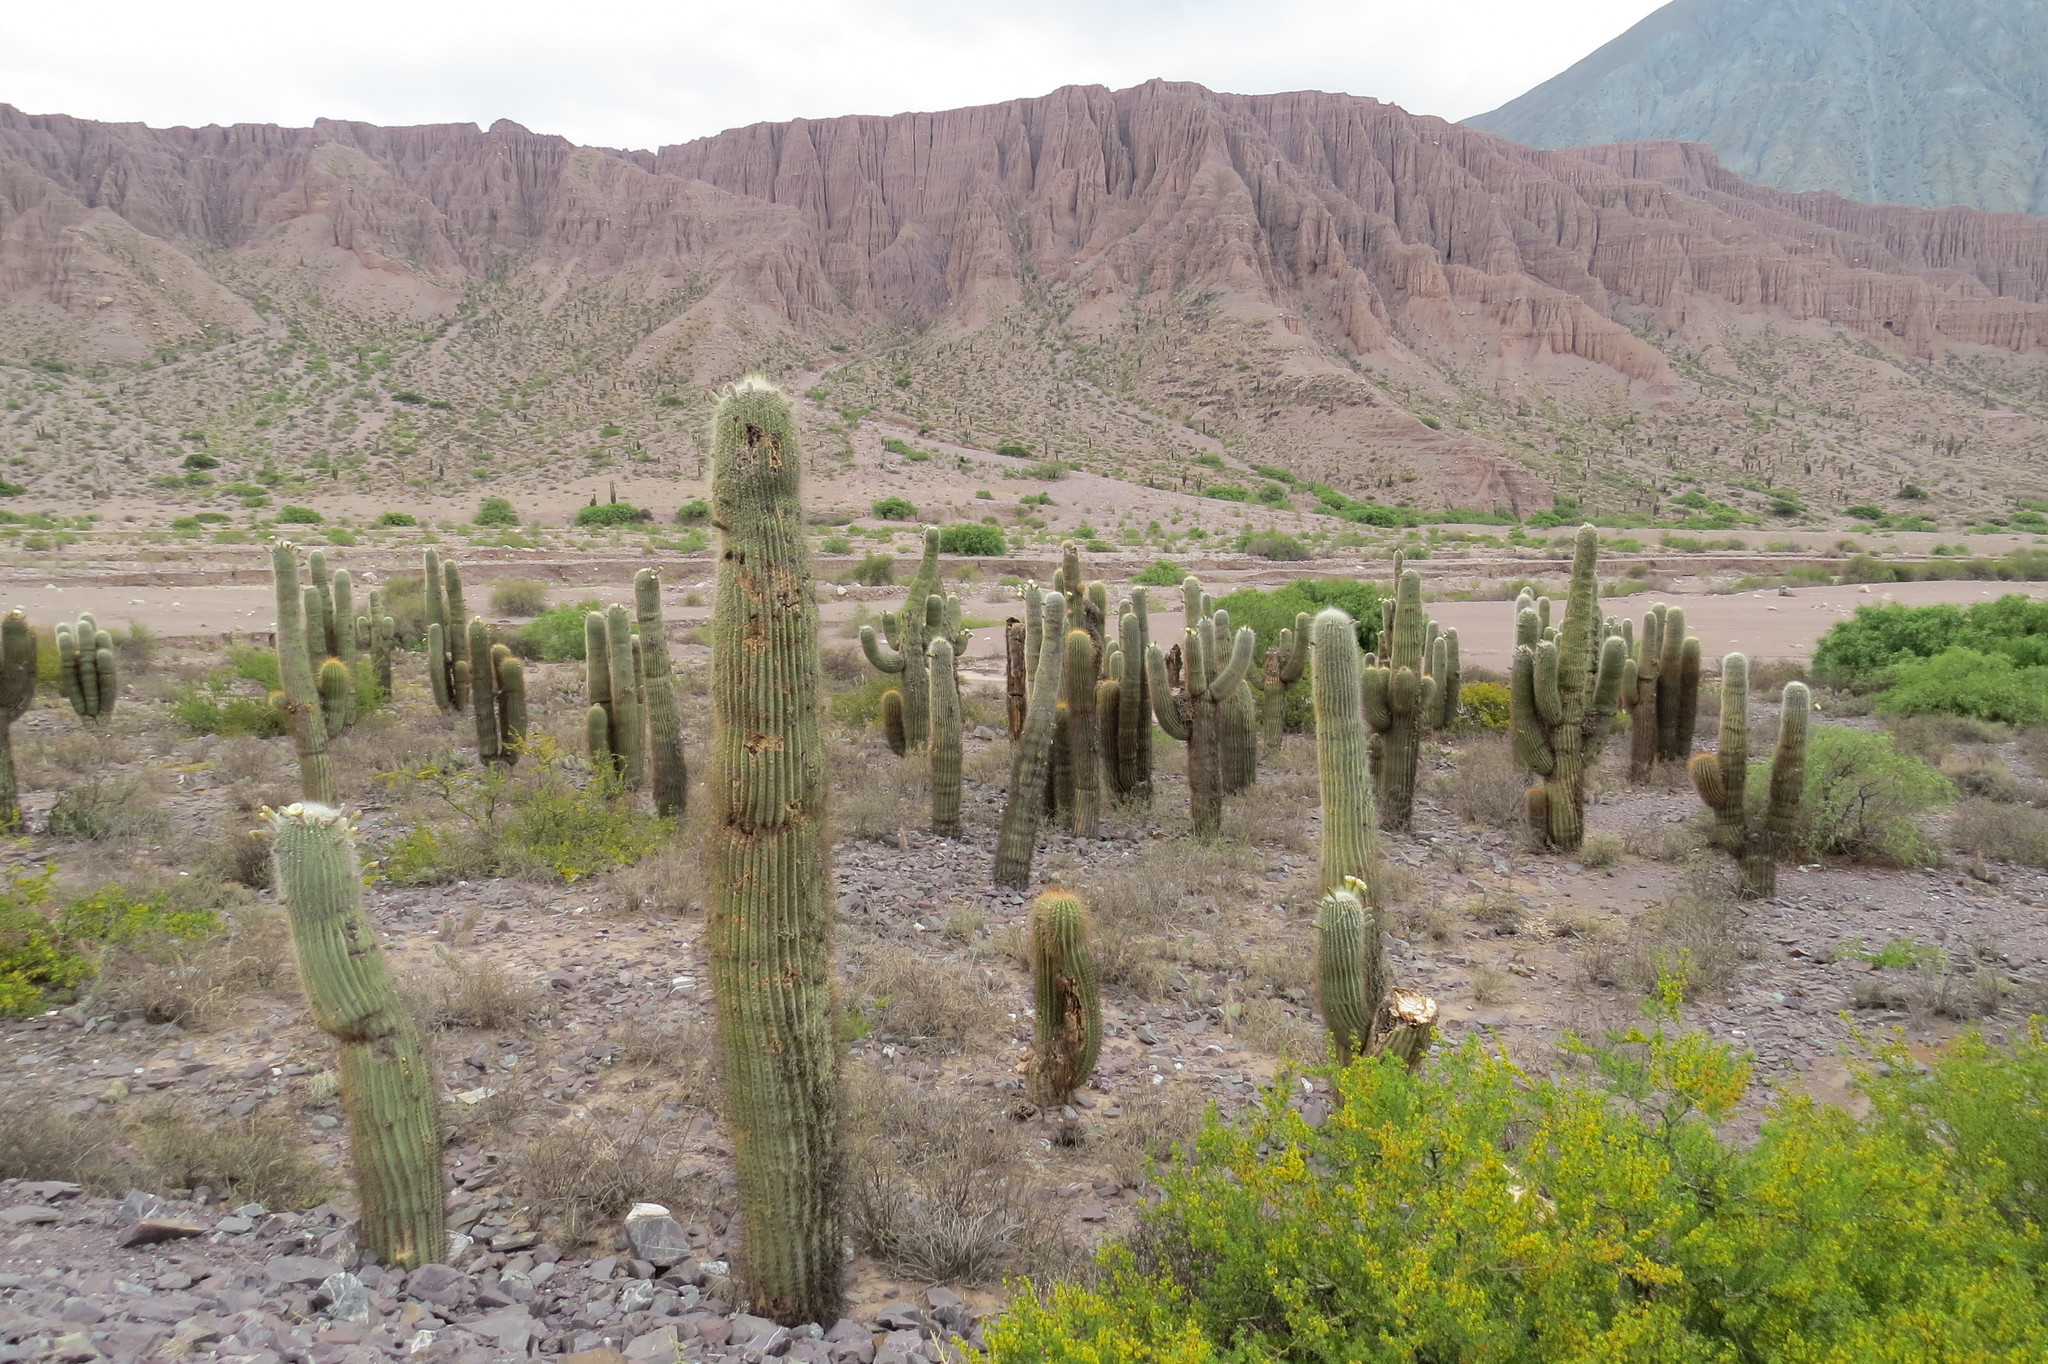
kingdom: Plantae
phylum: Tracheophyta
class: Magnoliopsida
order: Caryophyllales
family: Cactaceae
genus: Leucostele
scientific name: Leucostele atacamensis
